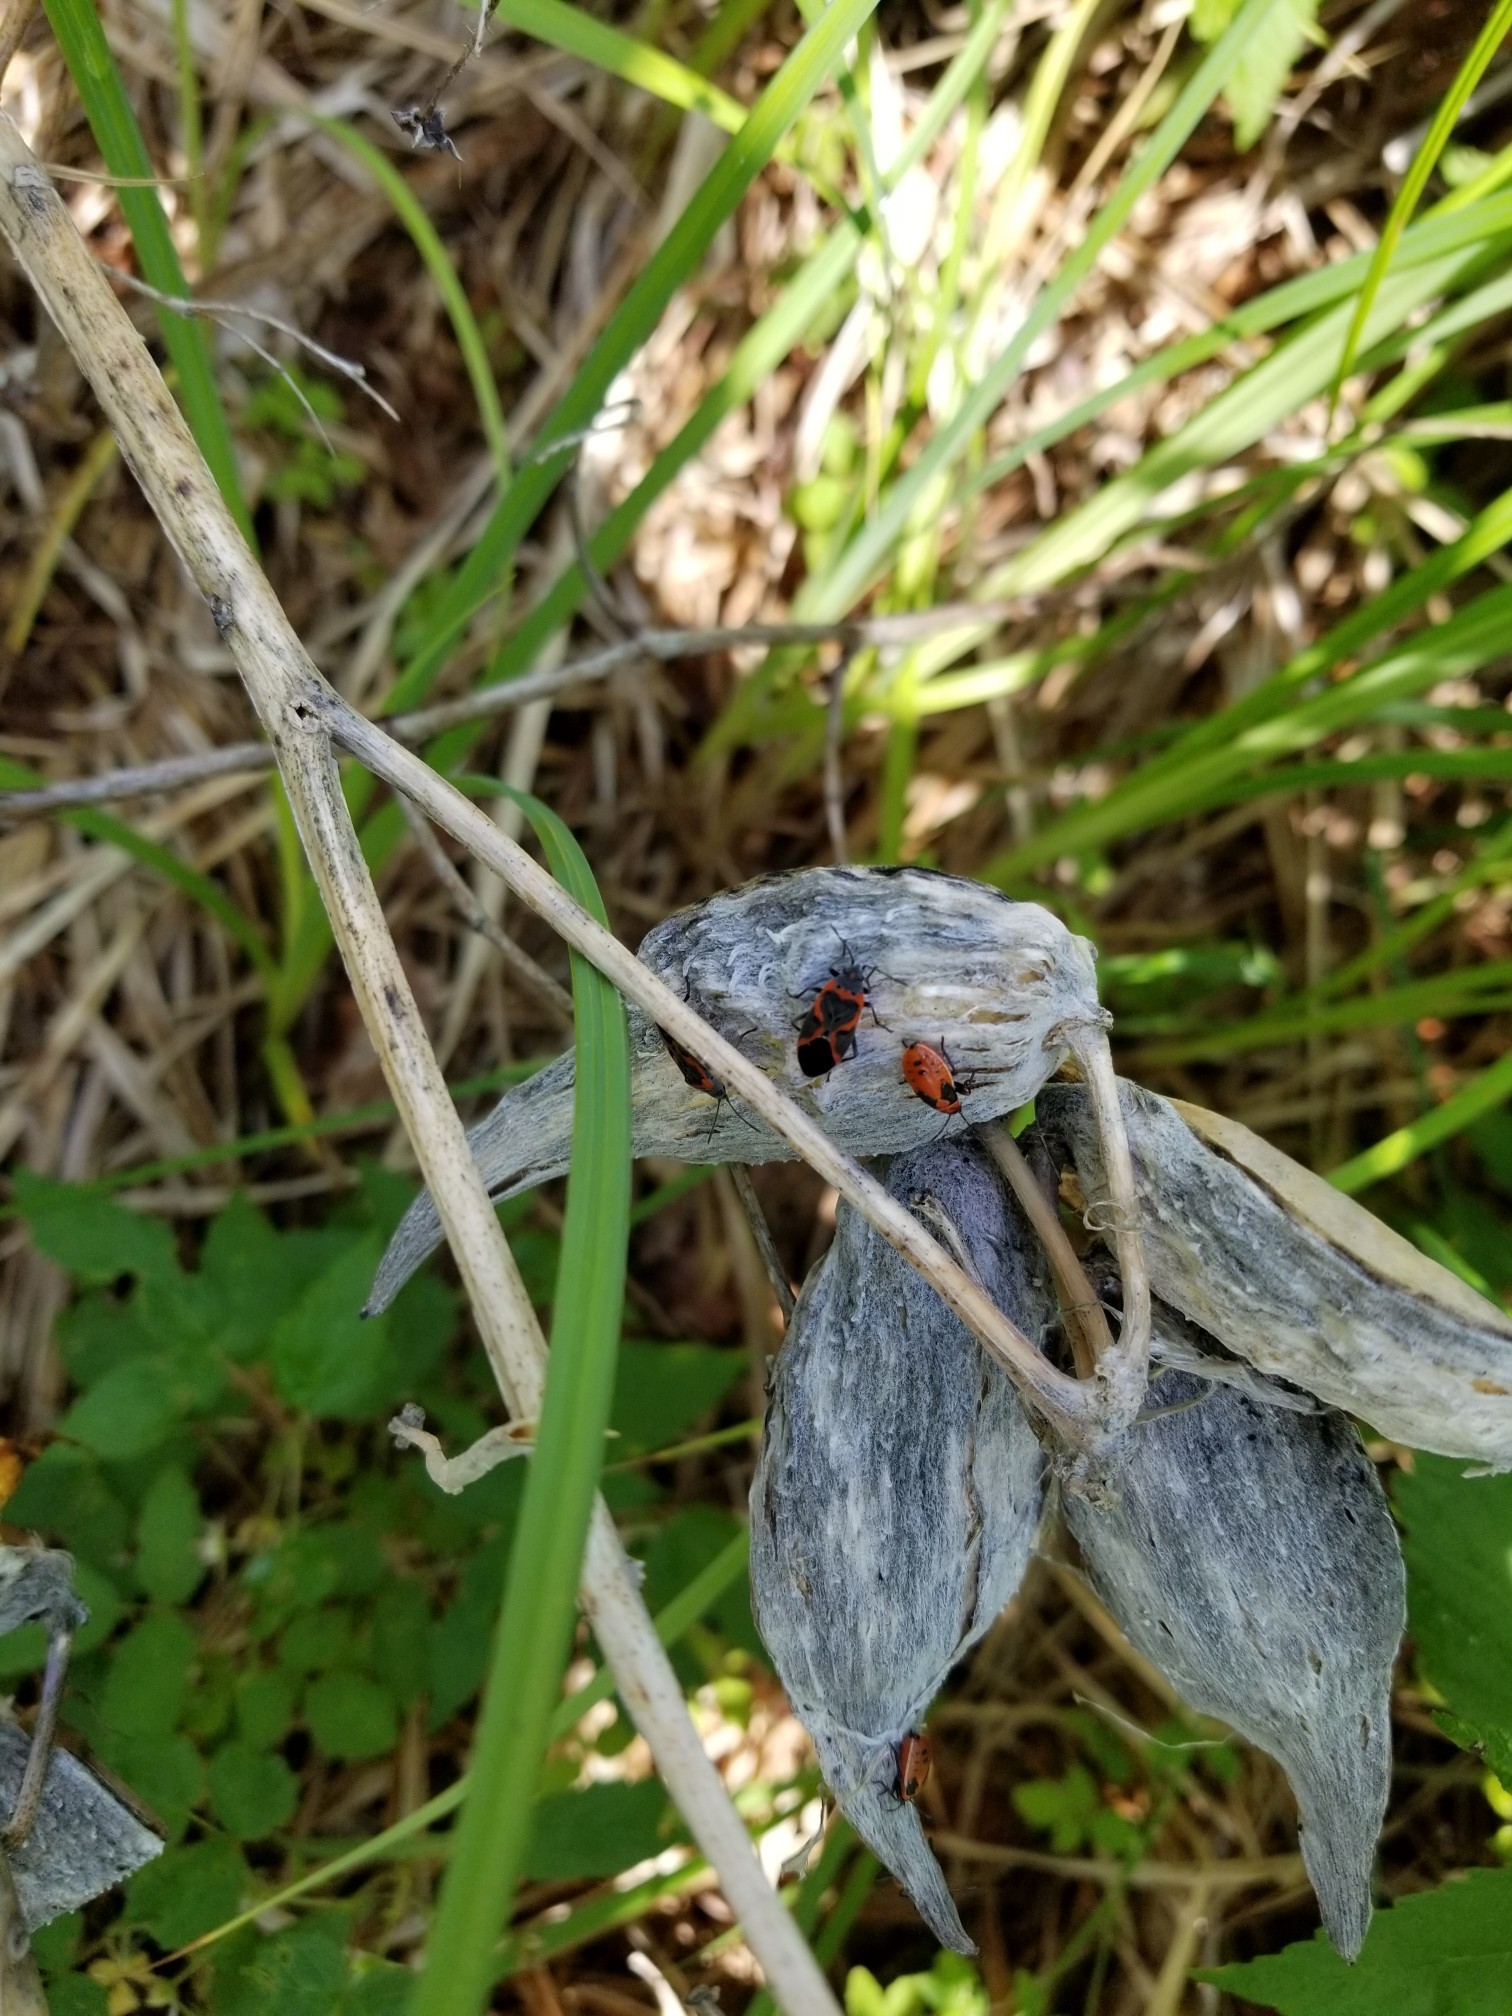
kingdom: Animalia
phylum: Arthropoda
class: Insecta
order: Hemiptera
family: Lygaeidae
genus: Lygaeus
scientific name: Lygaeus kalmii
